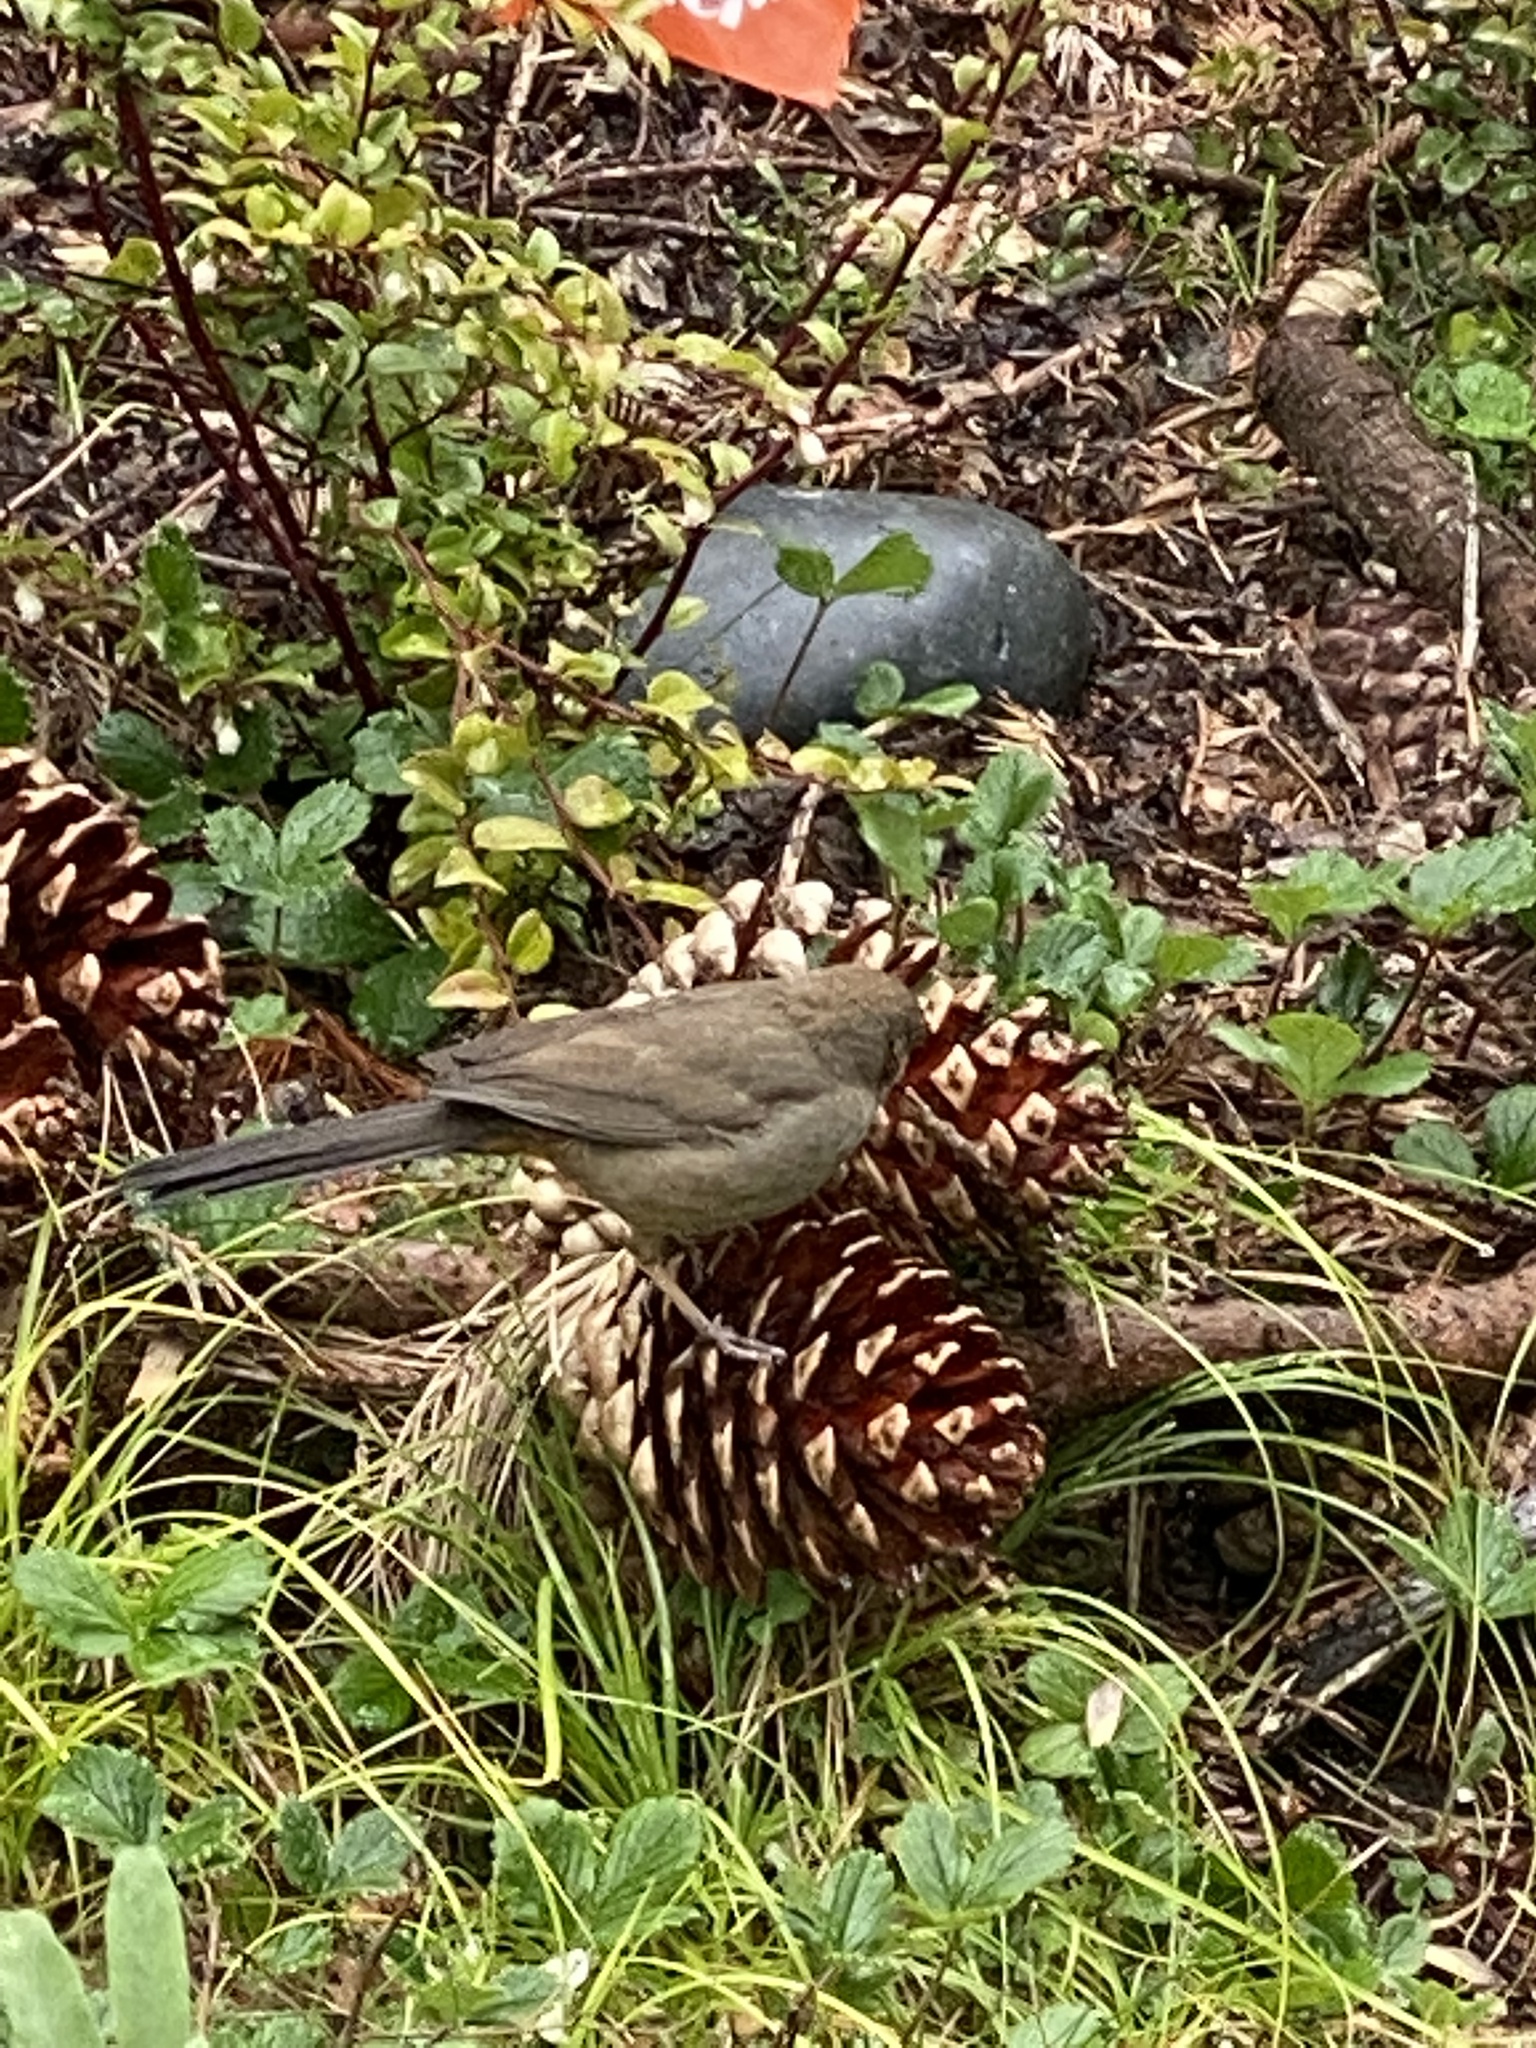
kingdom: Animalia
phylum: Chordata
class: Aves
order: Passeriformes
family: Passerellidae
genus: Melozone
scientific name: Melozone crissalis
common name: California towhee
